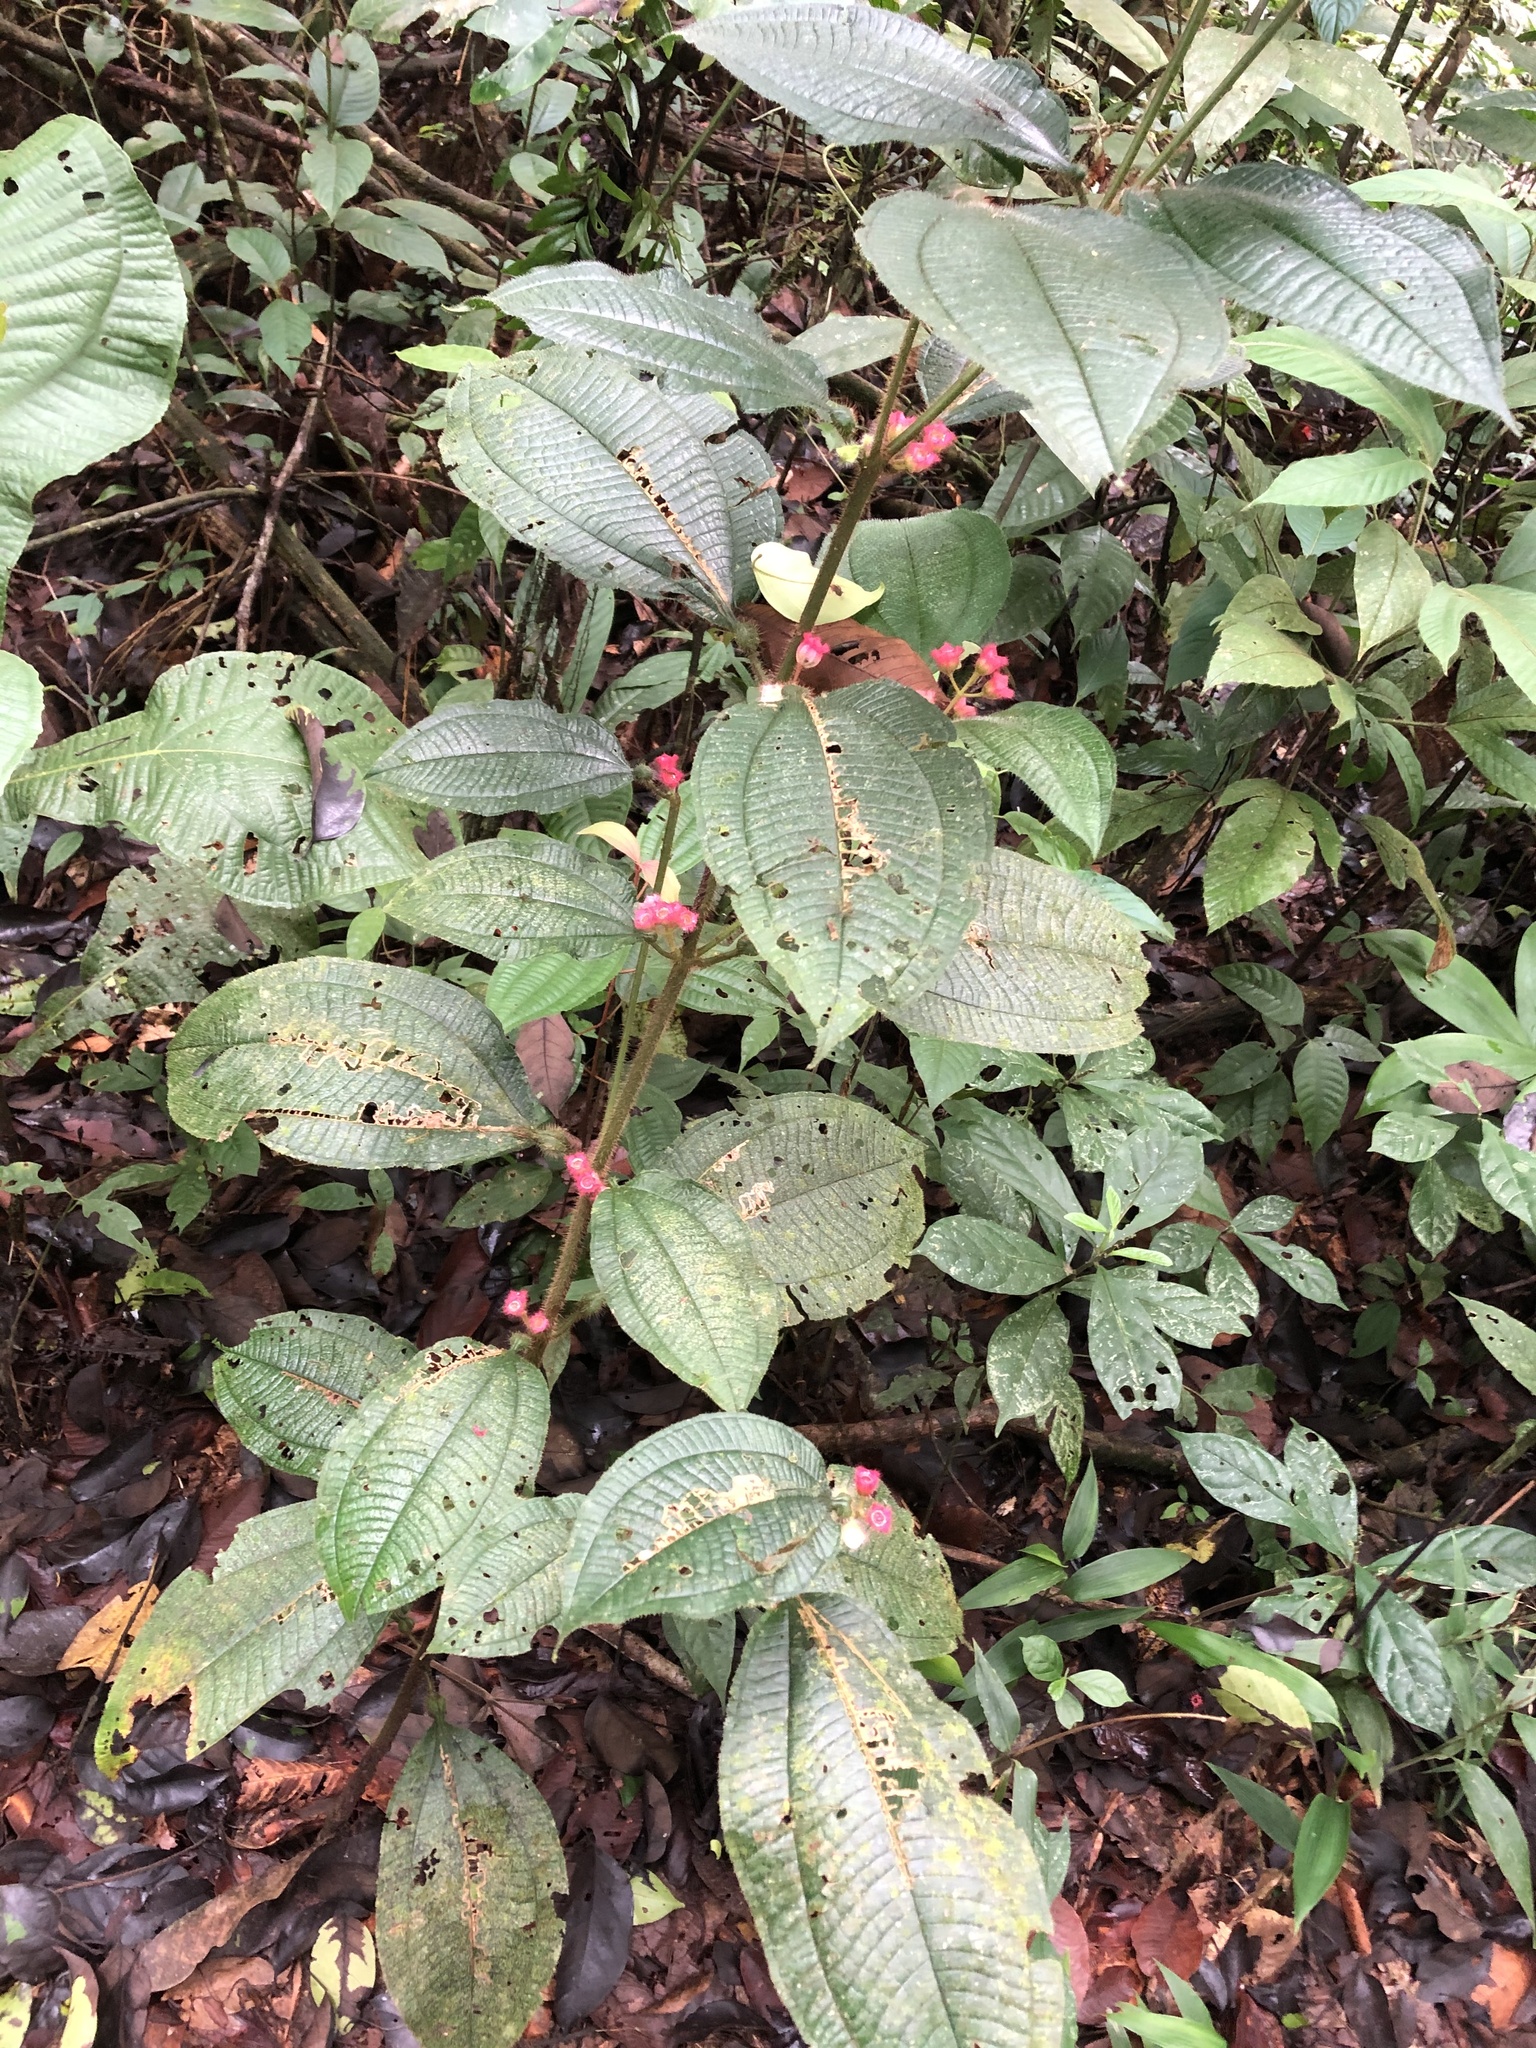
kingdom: Plantae
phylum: Tracheophyta
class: Magnoliopsida
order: Myrtales
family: Melastomataceae
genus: Miconia
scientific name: Miconia microphysca
